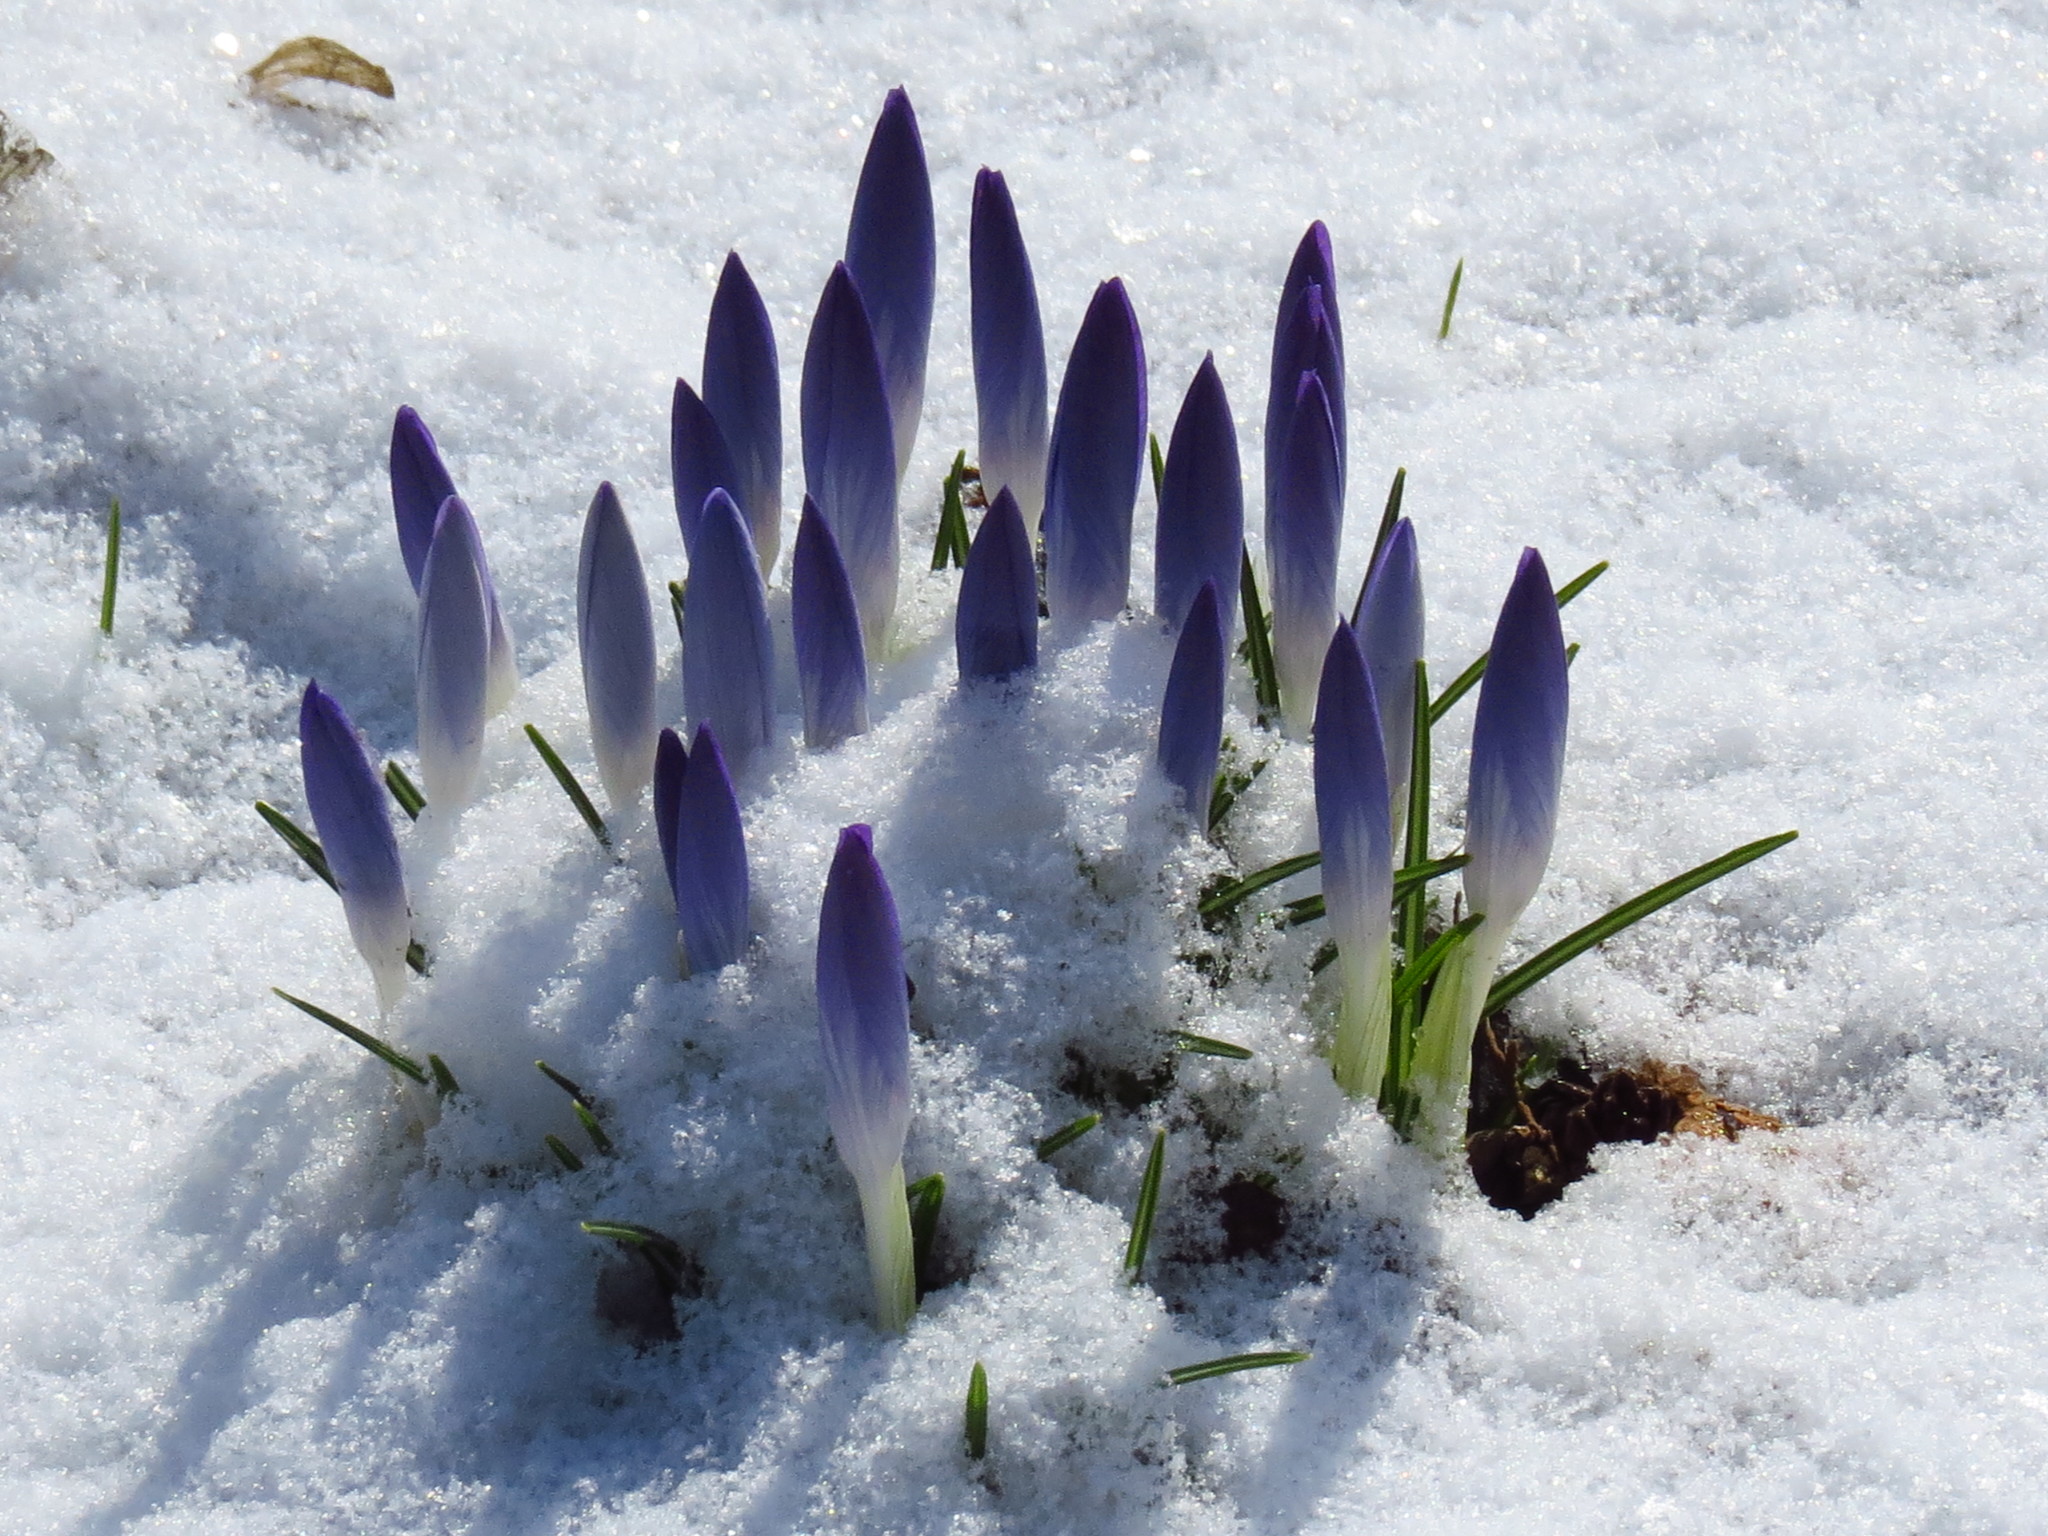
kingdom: Plantae
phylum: Tracheophyta
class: Liliopsida
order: Asparagales
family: Iridaceae
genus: Crocus
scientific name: Crocus tommasinianus
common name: Early crocus
